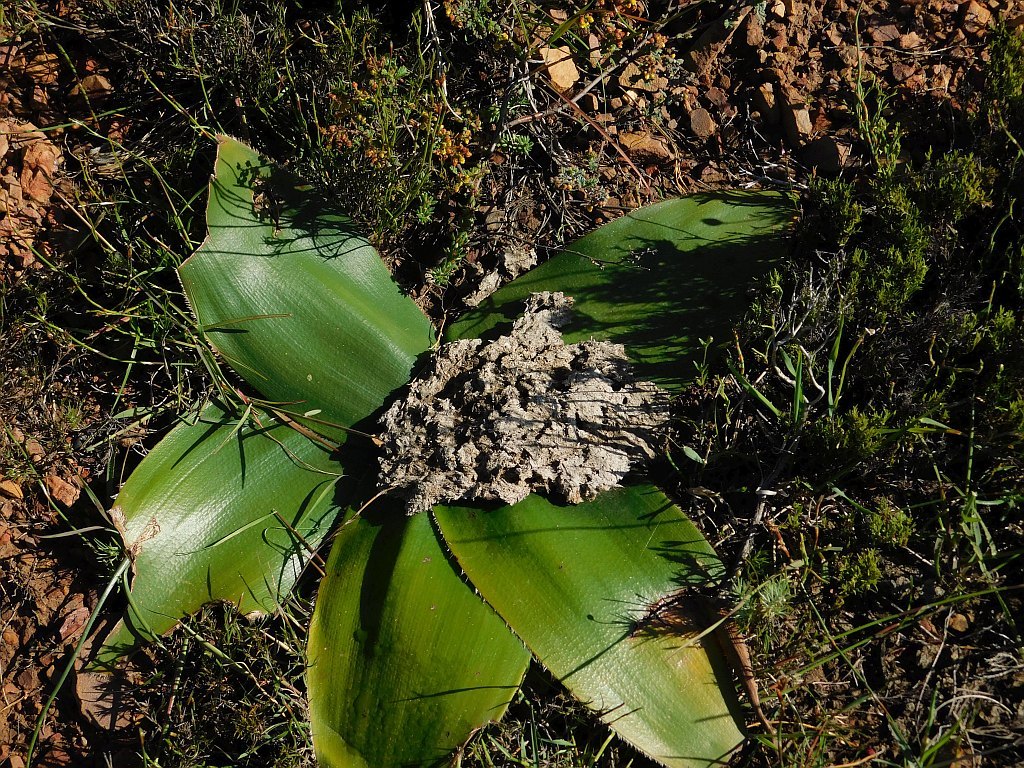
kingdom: Plantae
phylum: Tracheophyta
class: Liliopsida
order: Asparagales
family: Amaryllidaceae
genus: Crossyne
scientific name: Crossyne guttata
